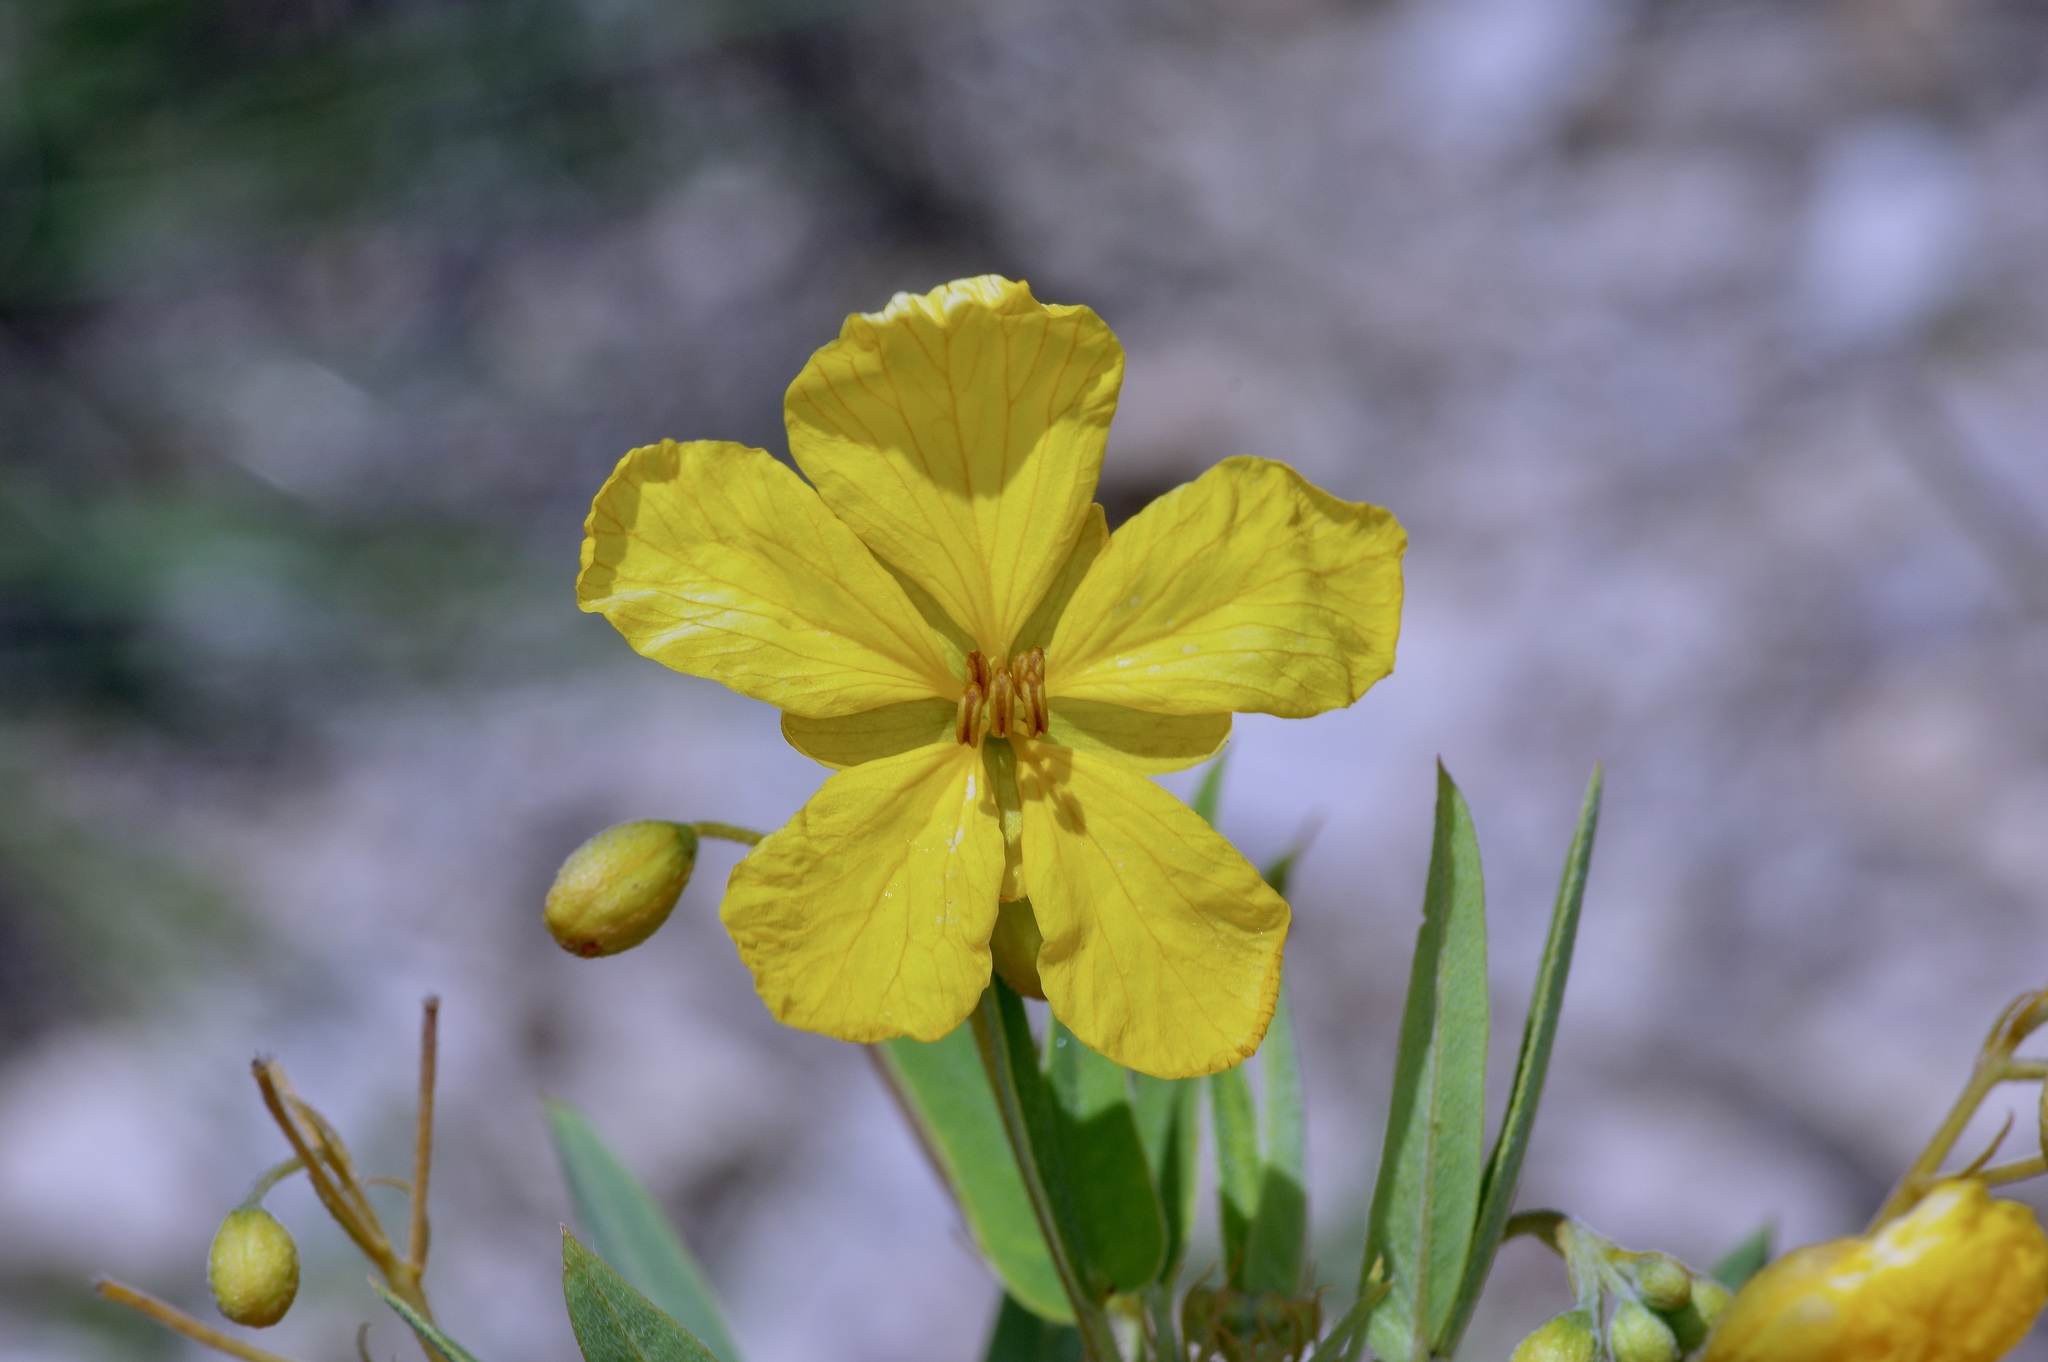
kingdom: Plantae
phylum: Tracheophyta
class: Magnoliopsida
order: Fabales
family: Fabaceae
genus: Senna
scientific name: Senna roemeriana
